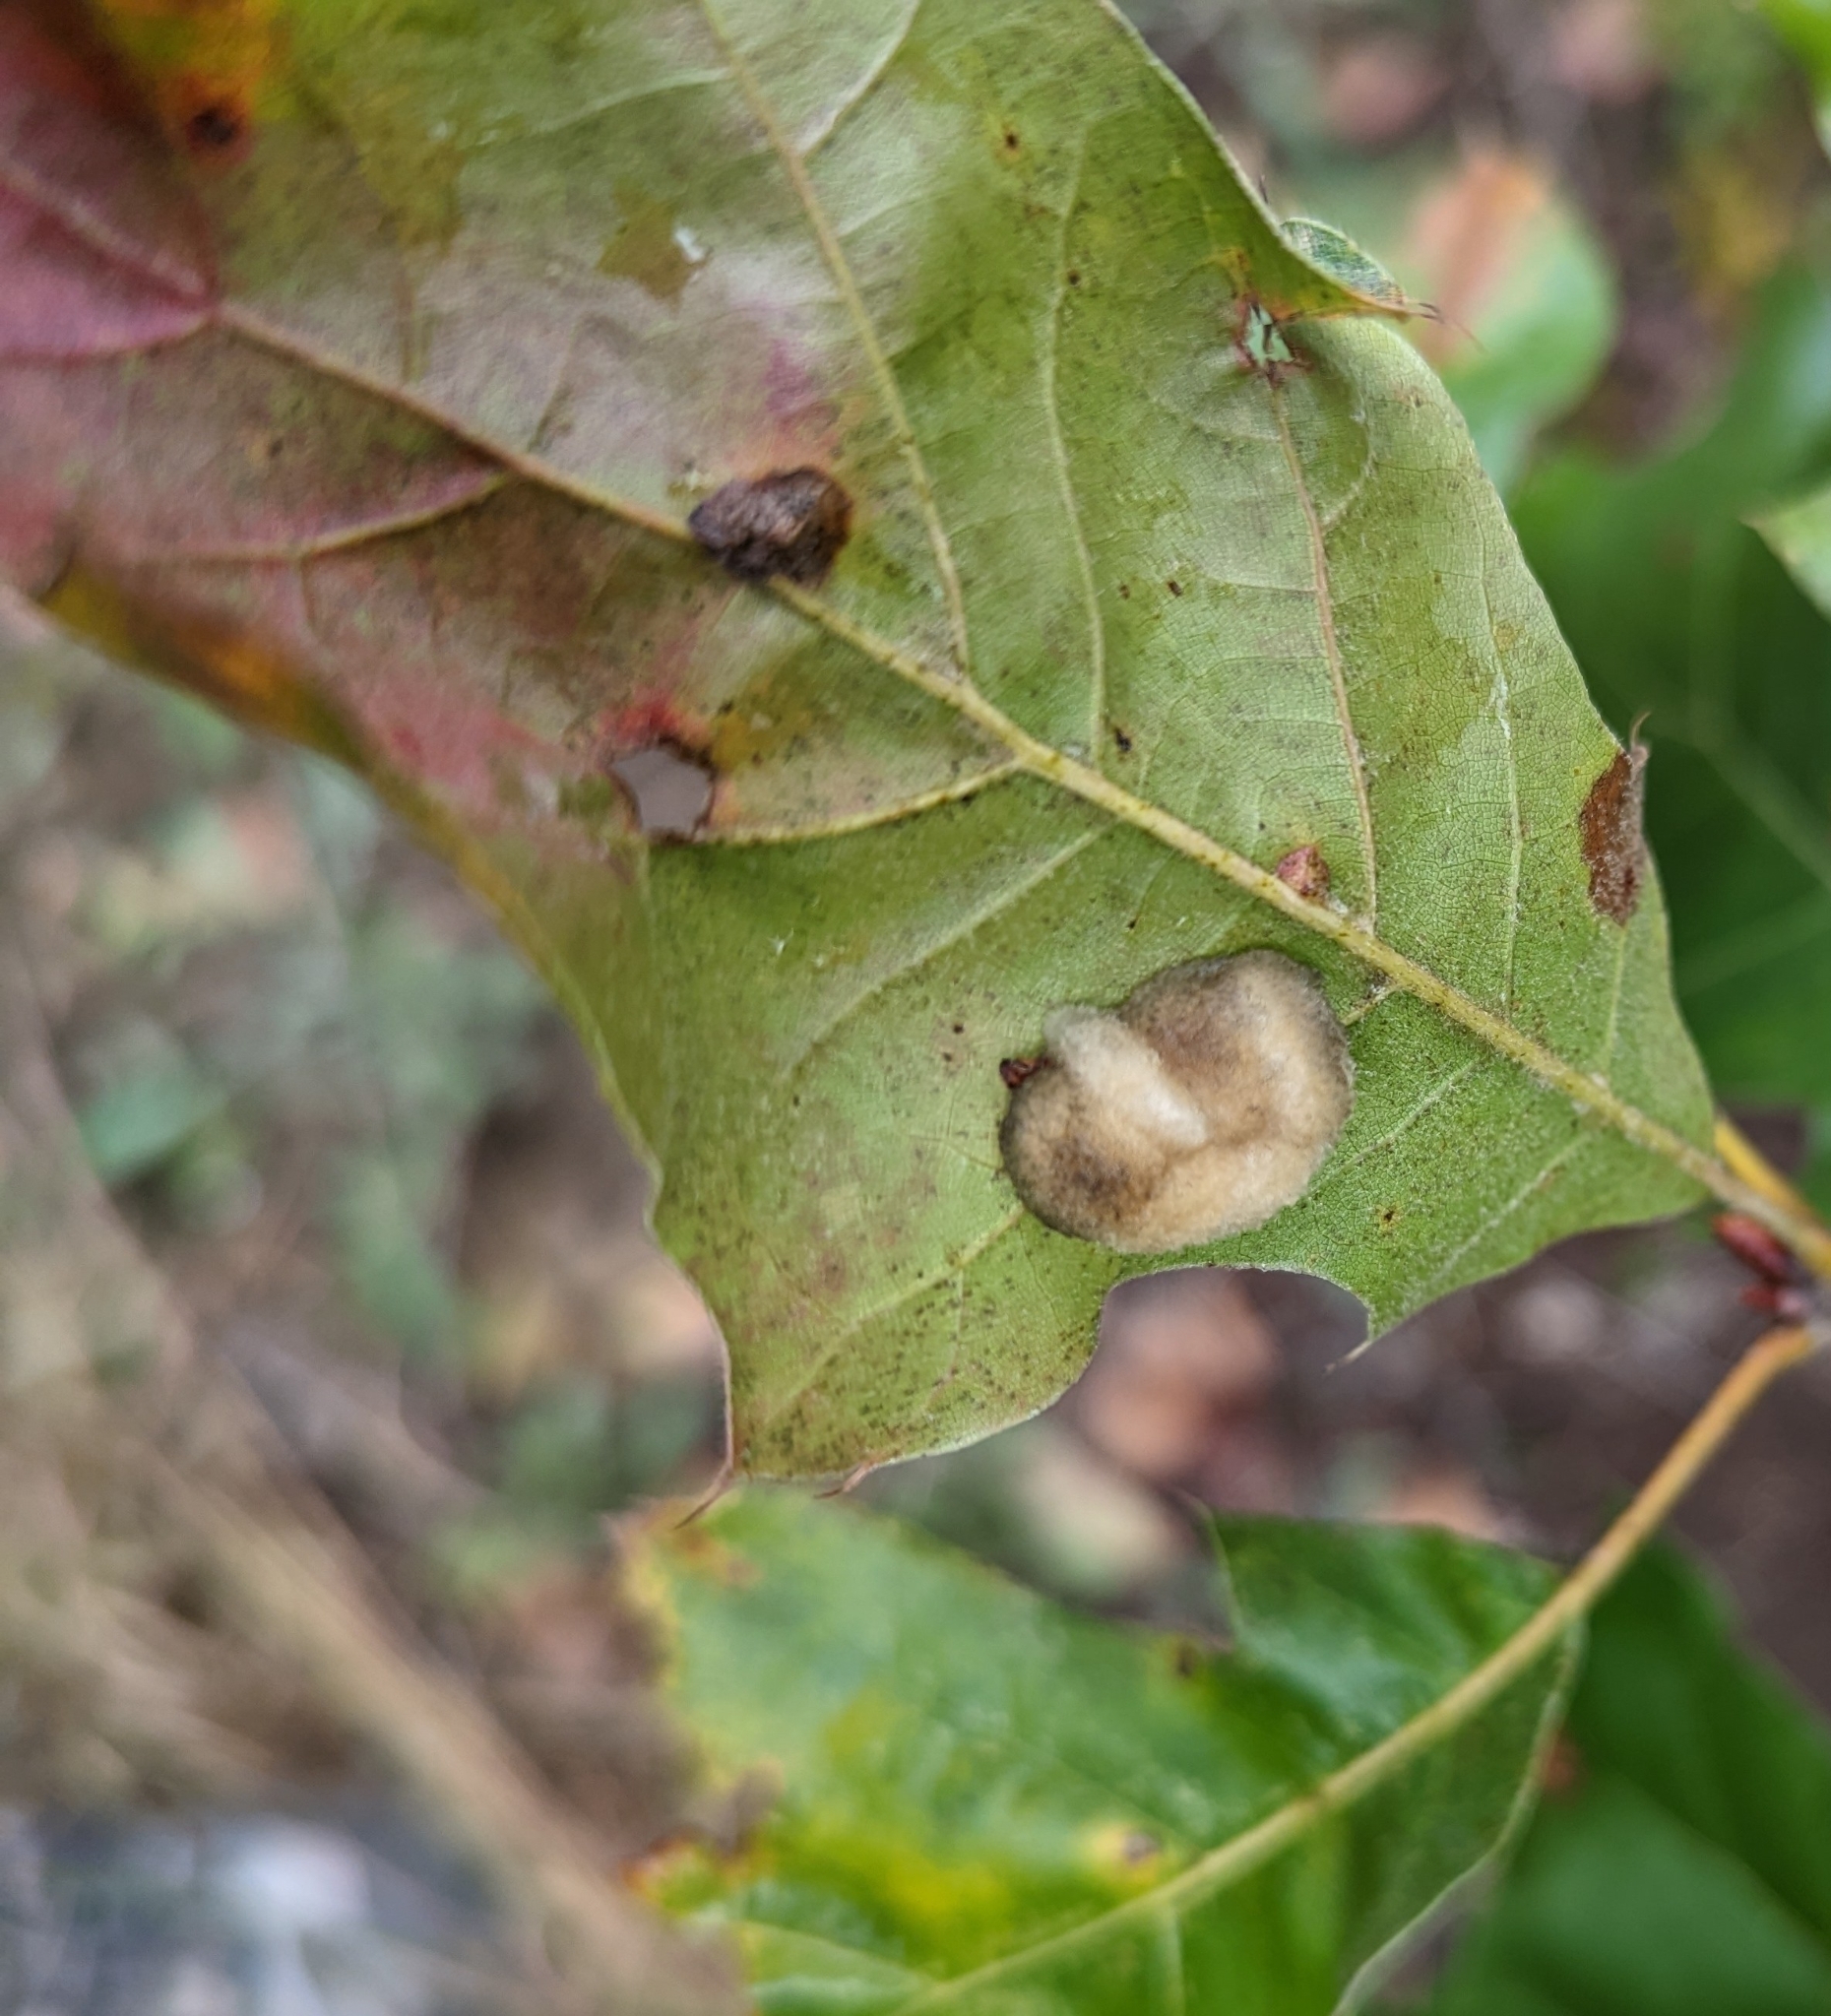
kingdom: Animalia
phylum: Arthropoda
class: Insecta
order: Hymenoptera
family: Cynipidae
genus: Callirhytis
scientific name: Callirhytis
